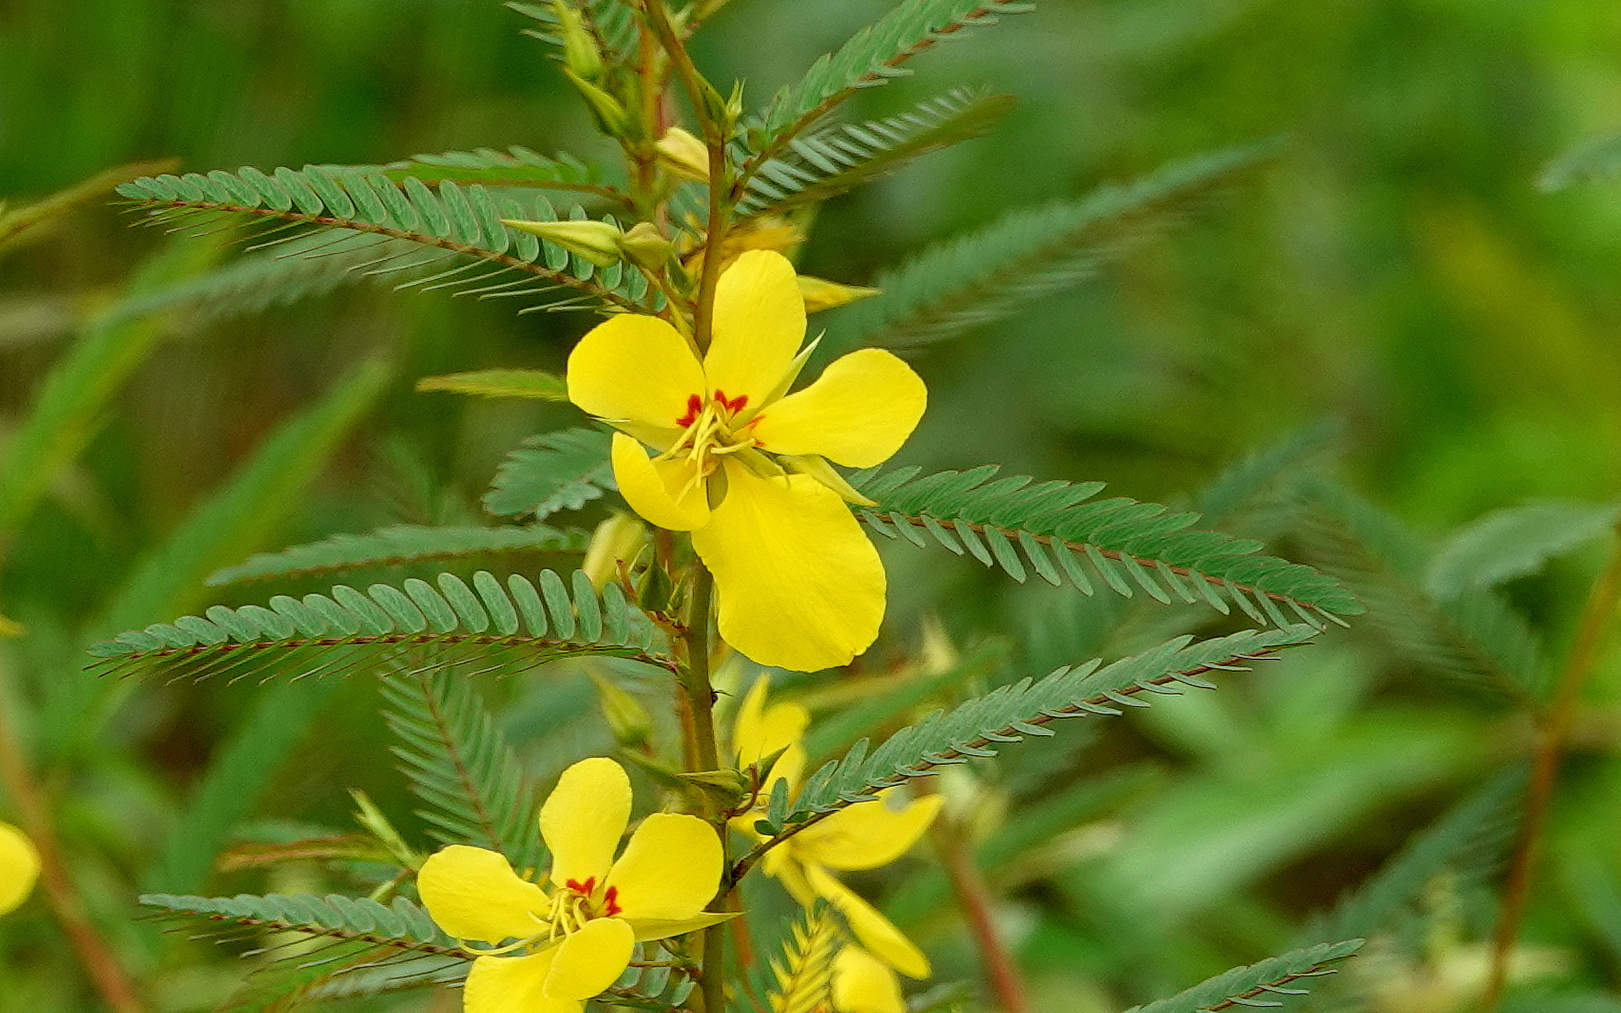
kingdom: Plantae
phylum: Tracheophyta
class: Magnoliopsida
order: Fabales
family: Fabaceae
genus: Chamaecrista
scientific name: Chamaecrista fasciculata
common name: Golden cassia
